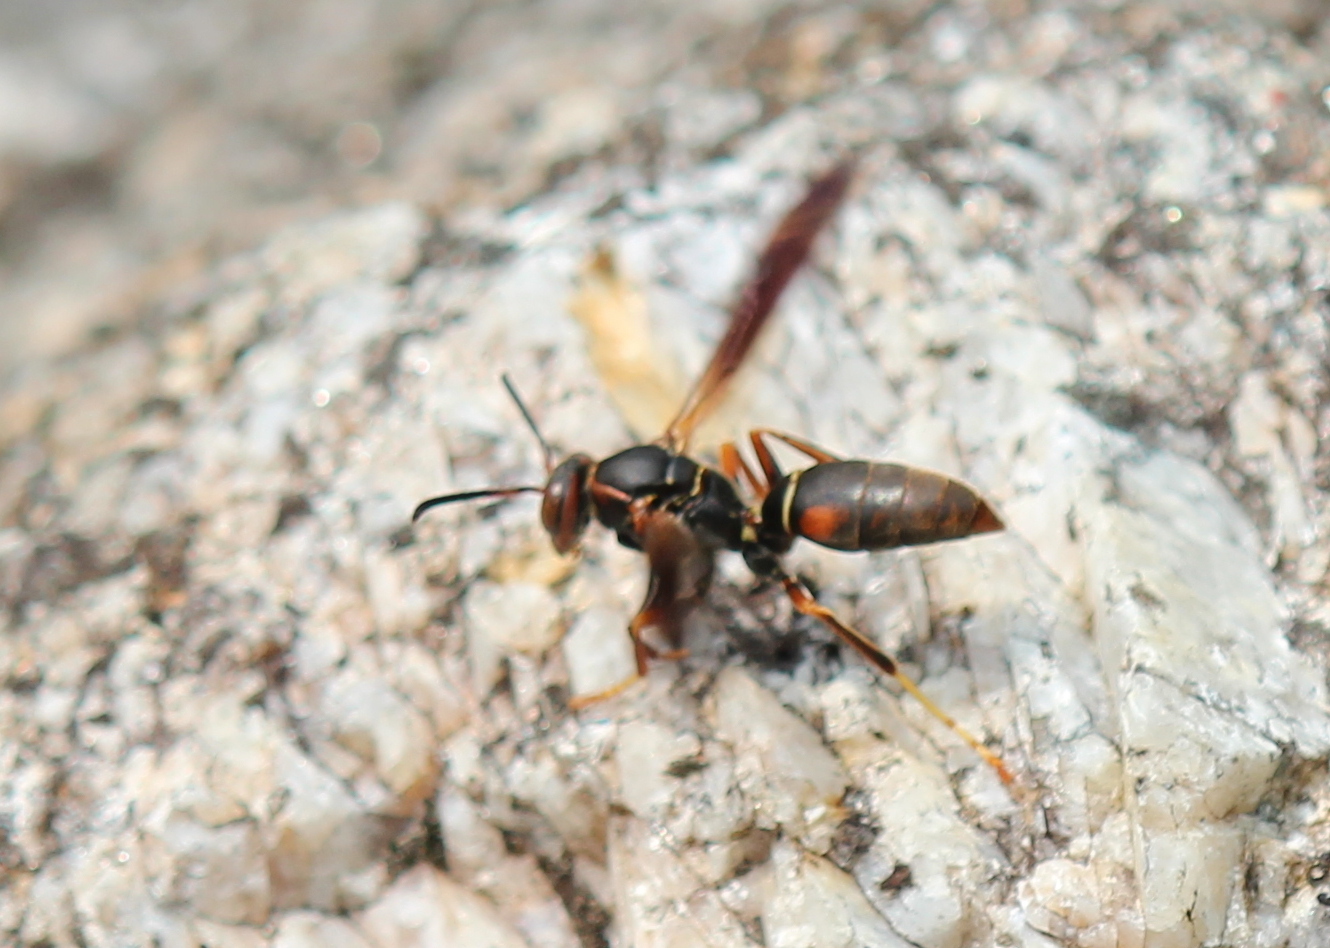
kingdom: Animalia
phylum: Arthropoda
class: Insecta
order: Hymenoptera
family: Eumenidae
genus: Polistes
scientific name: Polistes fuscatus
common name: Dark paper wasp
